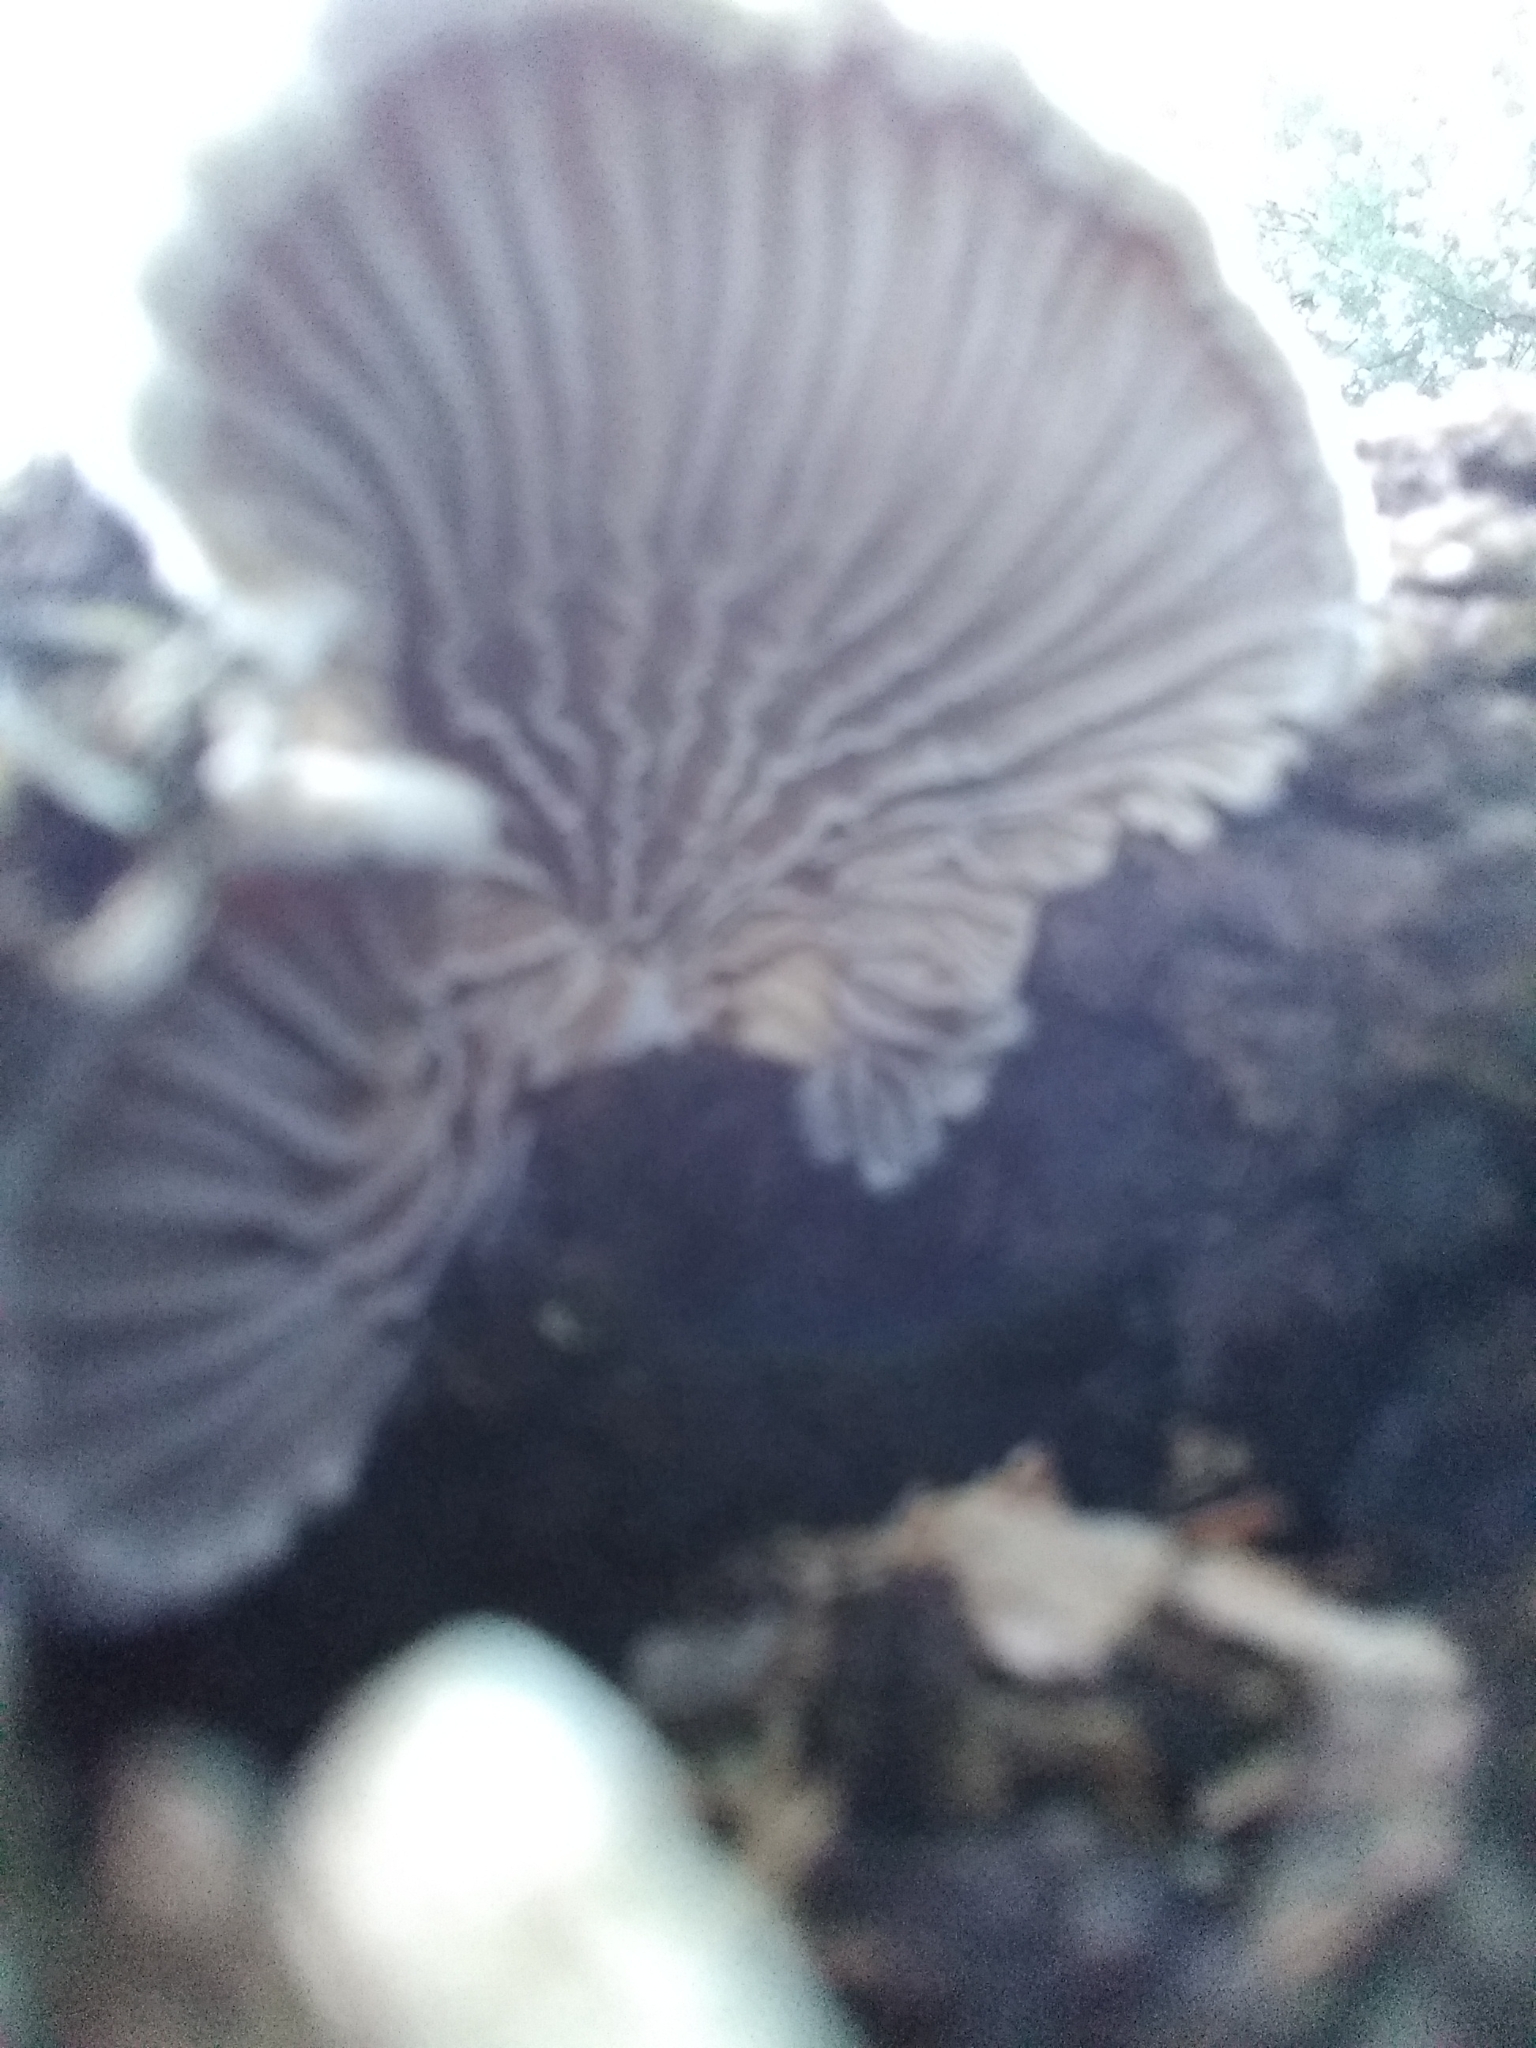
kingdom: Fungi
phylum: Basidiomycota
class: Agaricomycetes
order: Agaricales
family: Schizophyllaceae
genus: Schizophyllum
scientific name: Schizophyllum commune
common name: Common porecrust
